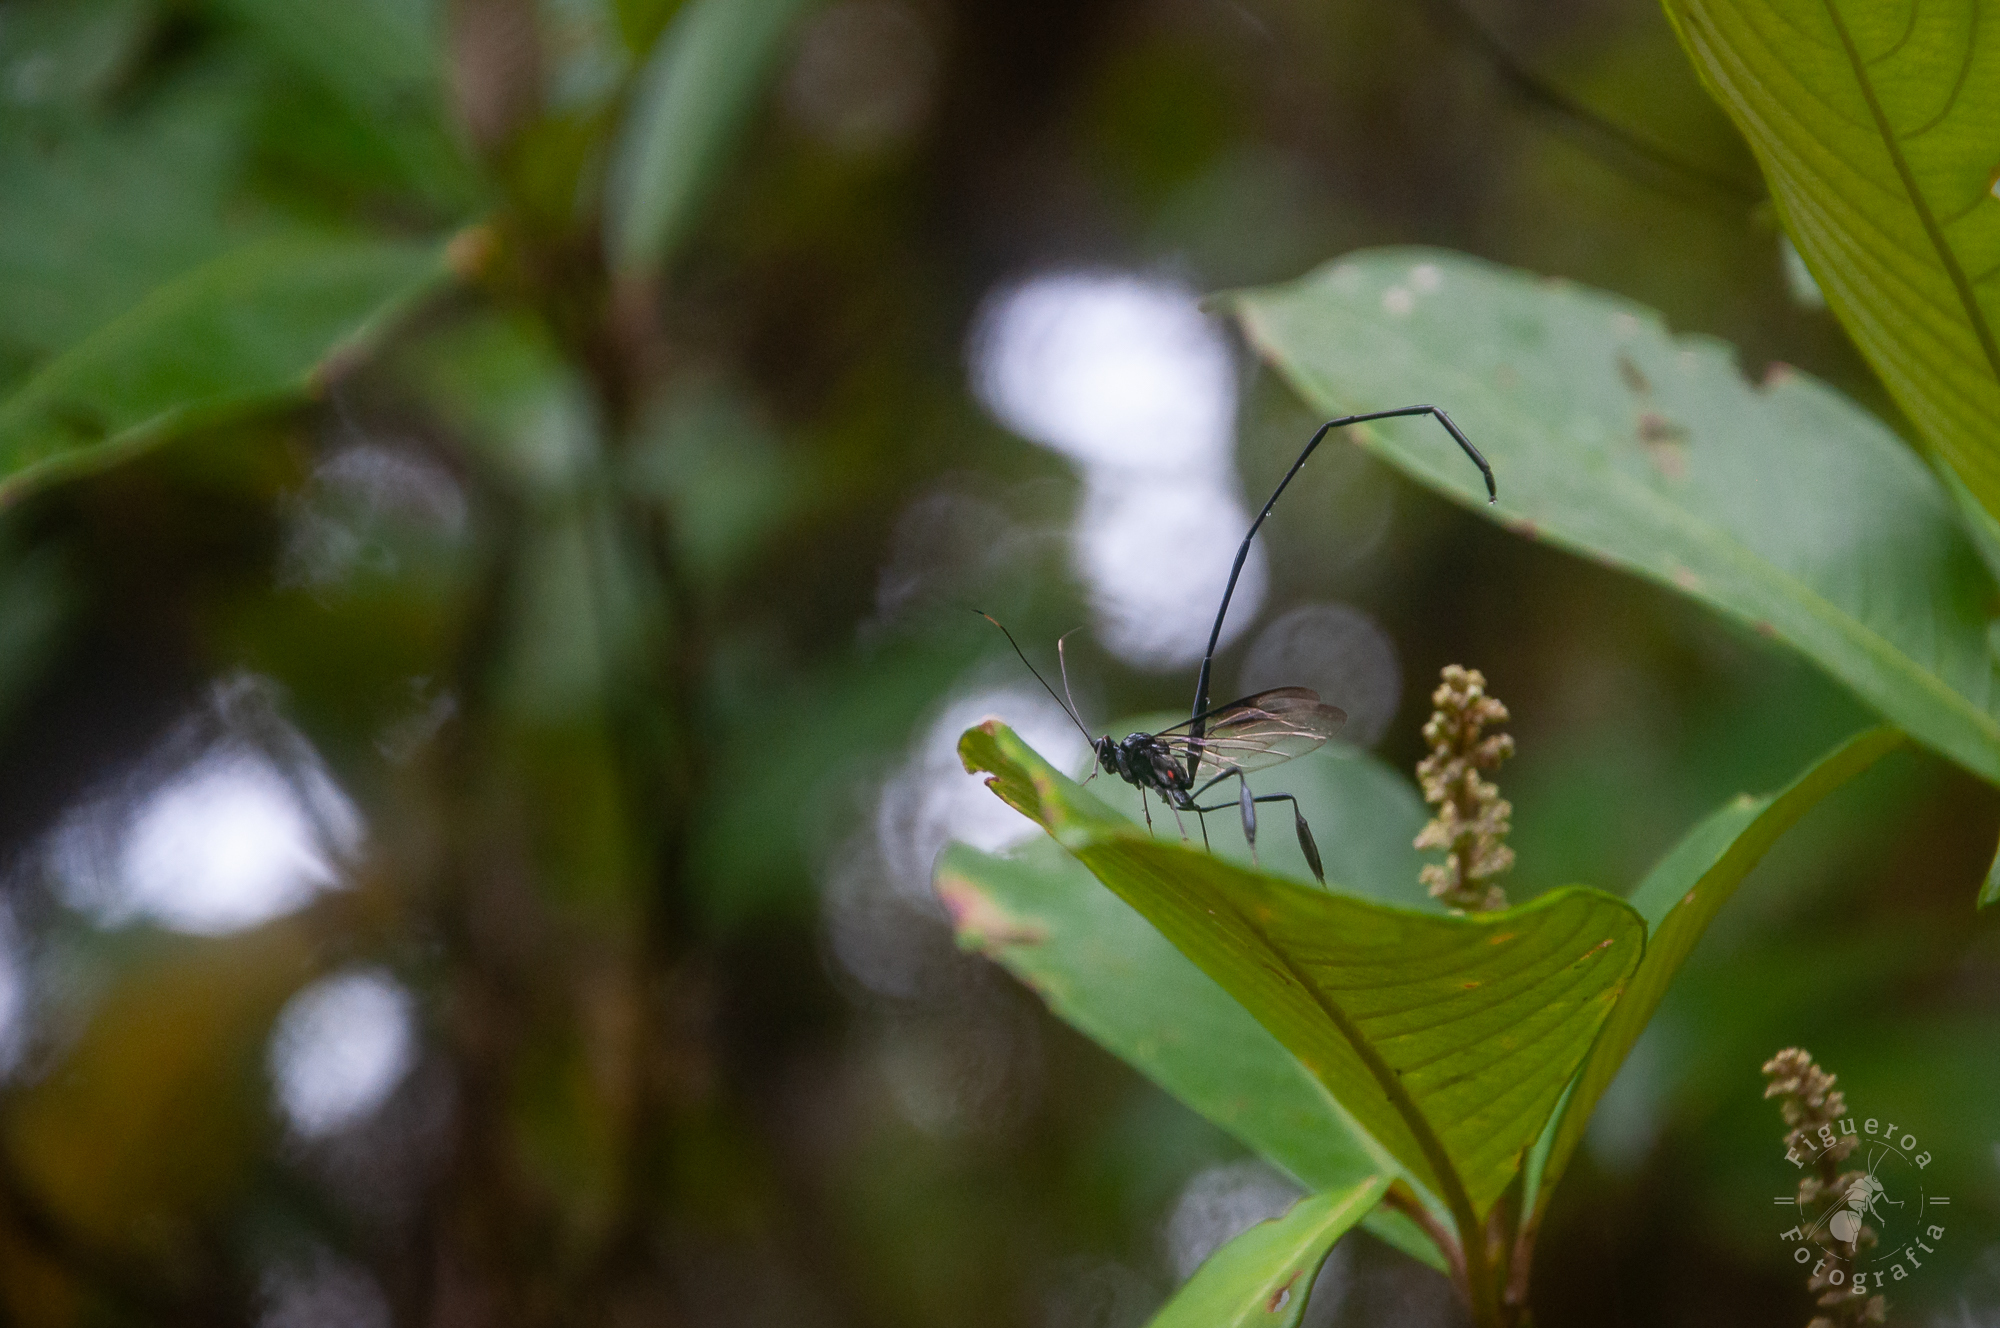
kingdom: Animalia
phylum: Arthropoda
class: Insecta
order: Hymenoptera
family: Pelecinidae
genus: Pelecinus
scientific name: Pelecinus polyturator
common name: American pelecinid wasp
